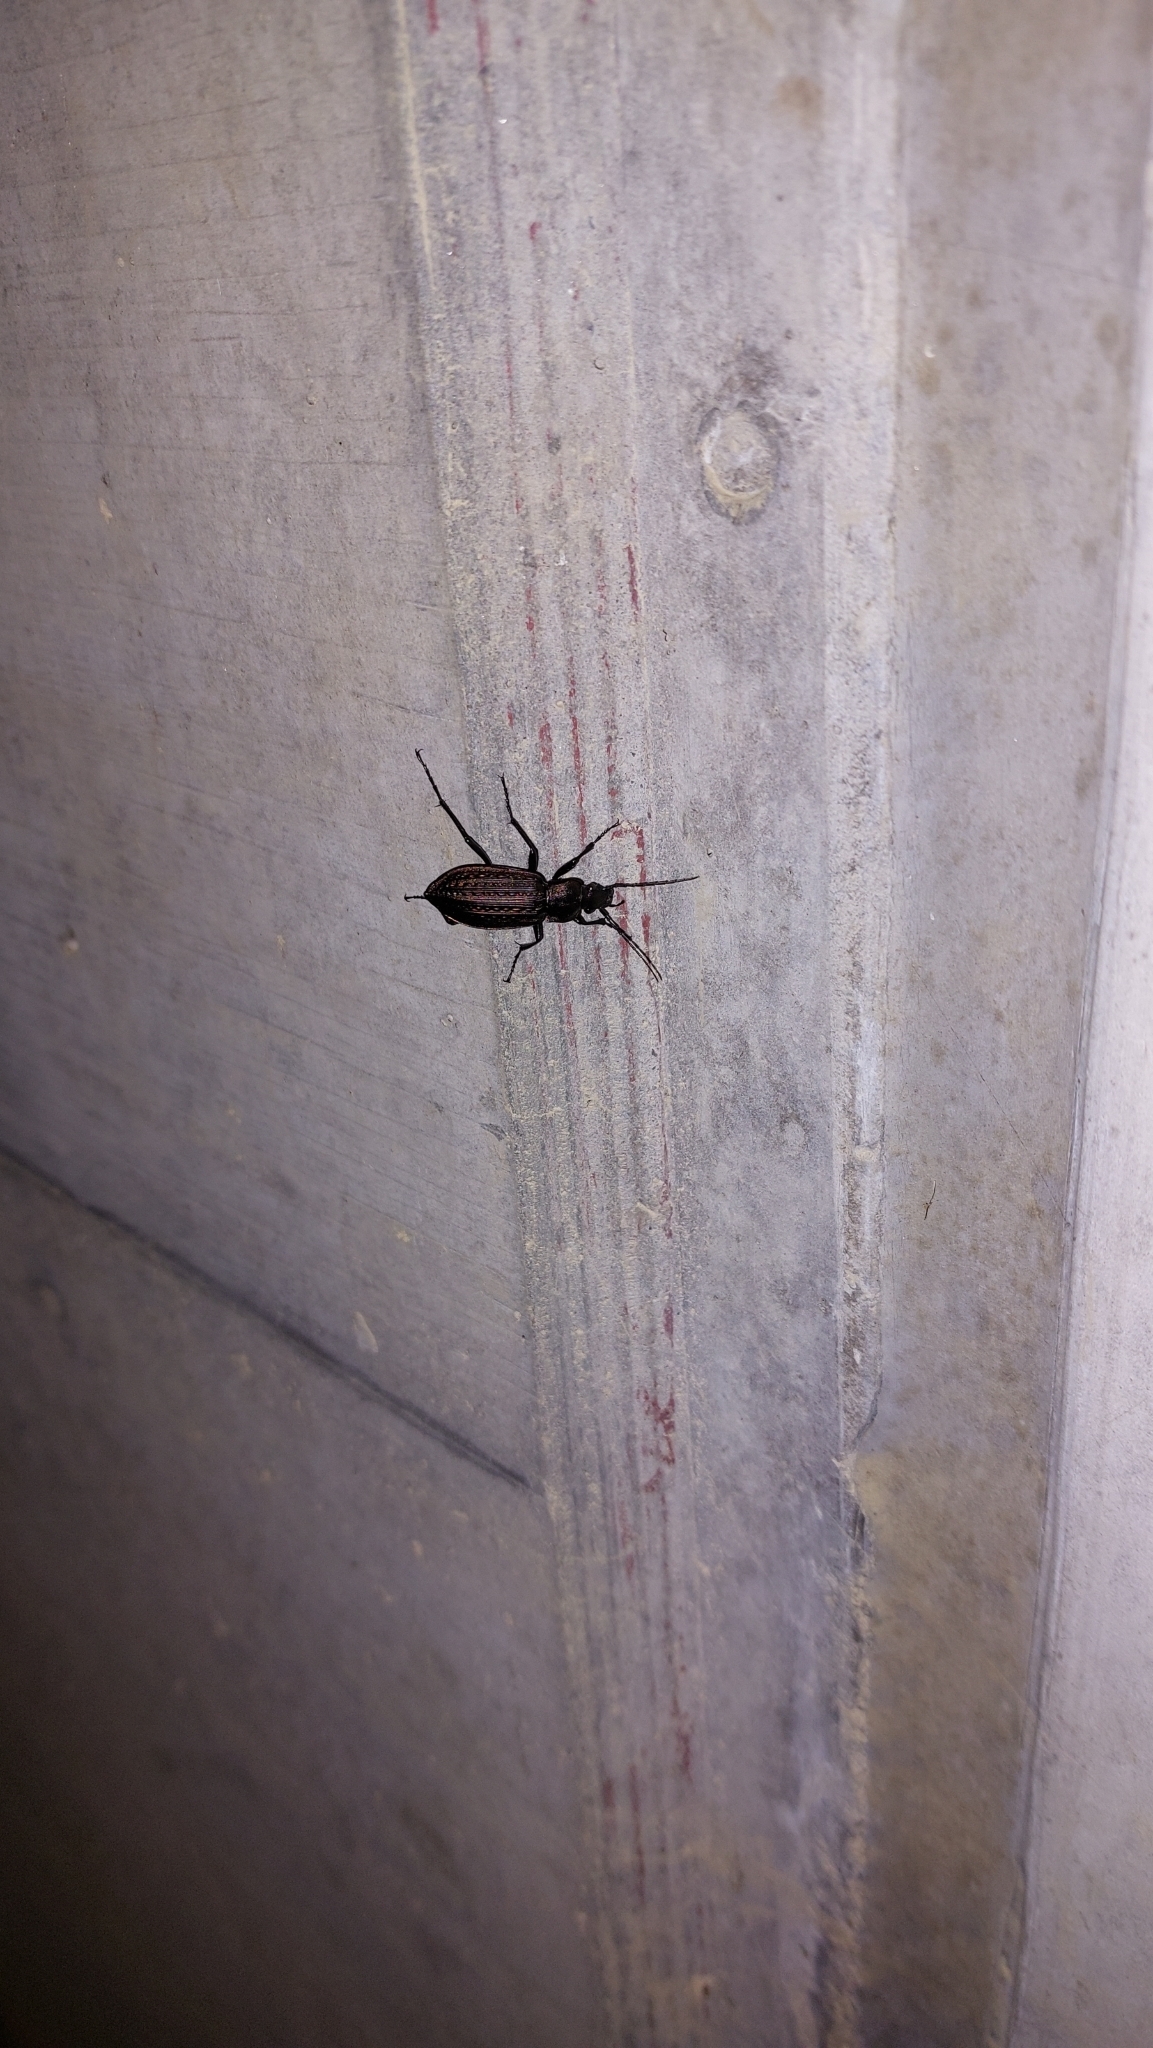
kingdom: Animalia
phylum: Arthropoda
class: Insecta
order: Coleoptera
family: Carabidae
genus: Carabus
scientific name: Carabus granulatus
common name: Granulate ground beetle
